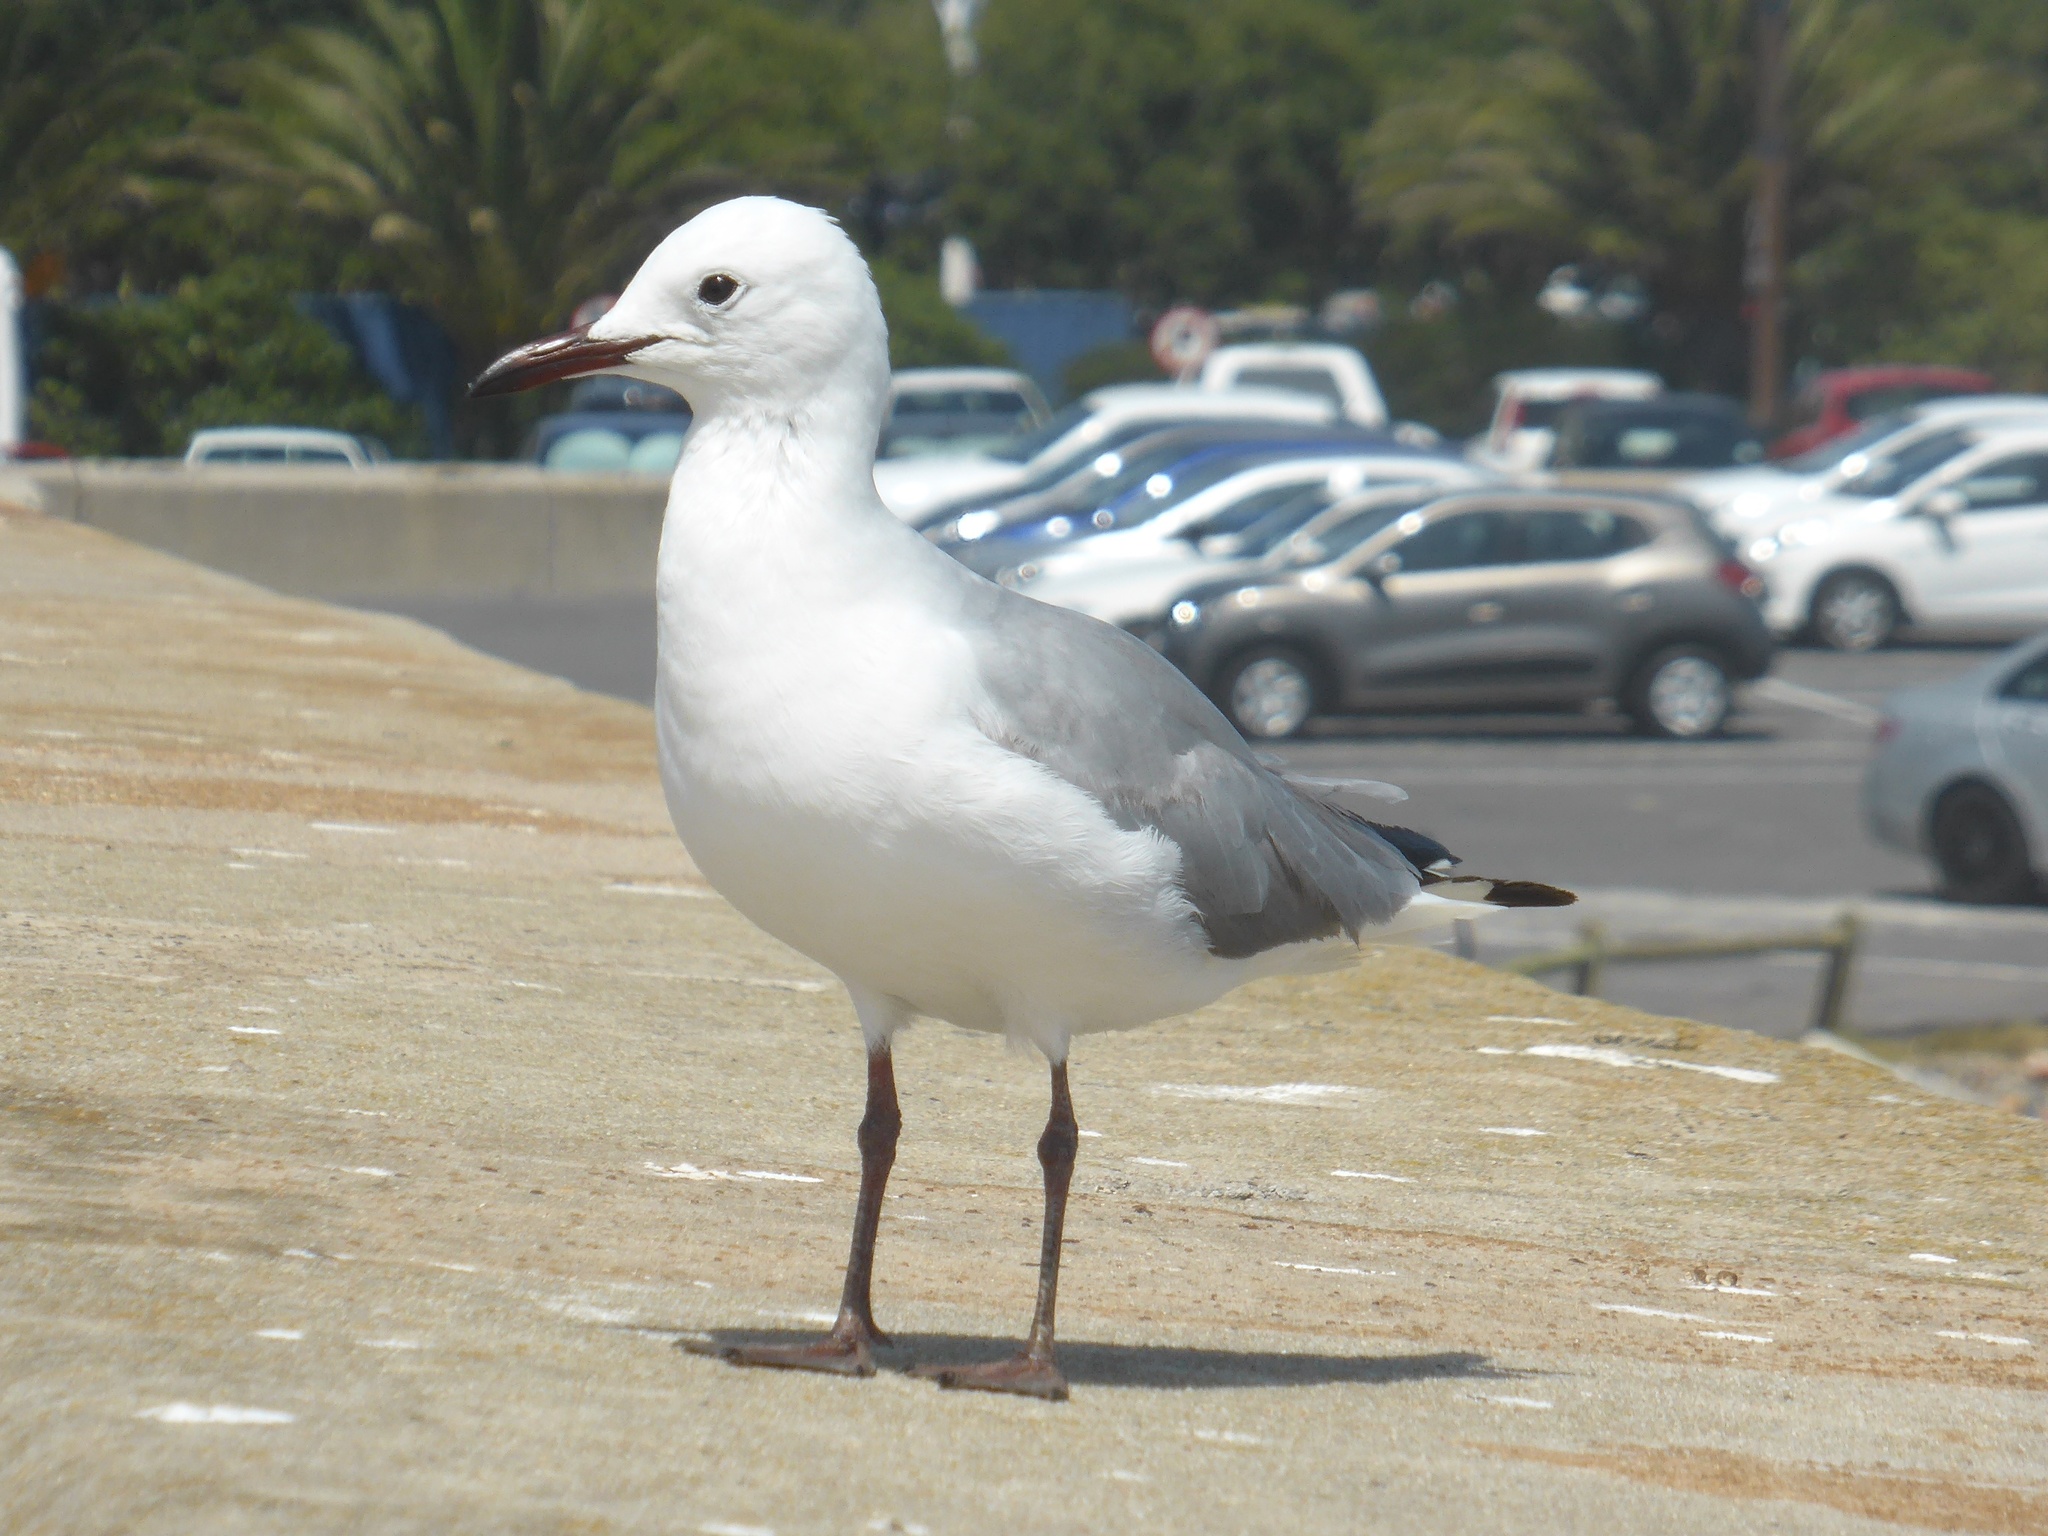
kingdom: Animalia
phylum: Chordata
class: Aves
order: Charadriiformes
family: Laridae
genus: Chroicocephalus
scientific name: Chroicocephalus hartlaubii
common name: Hartlaub's gull
